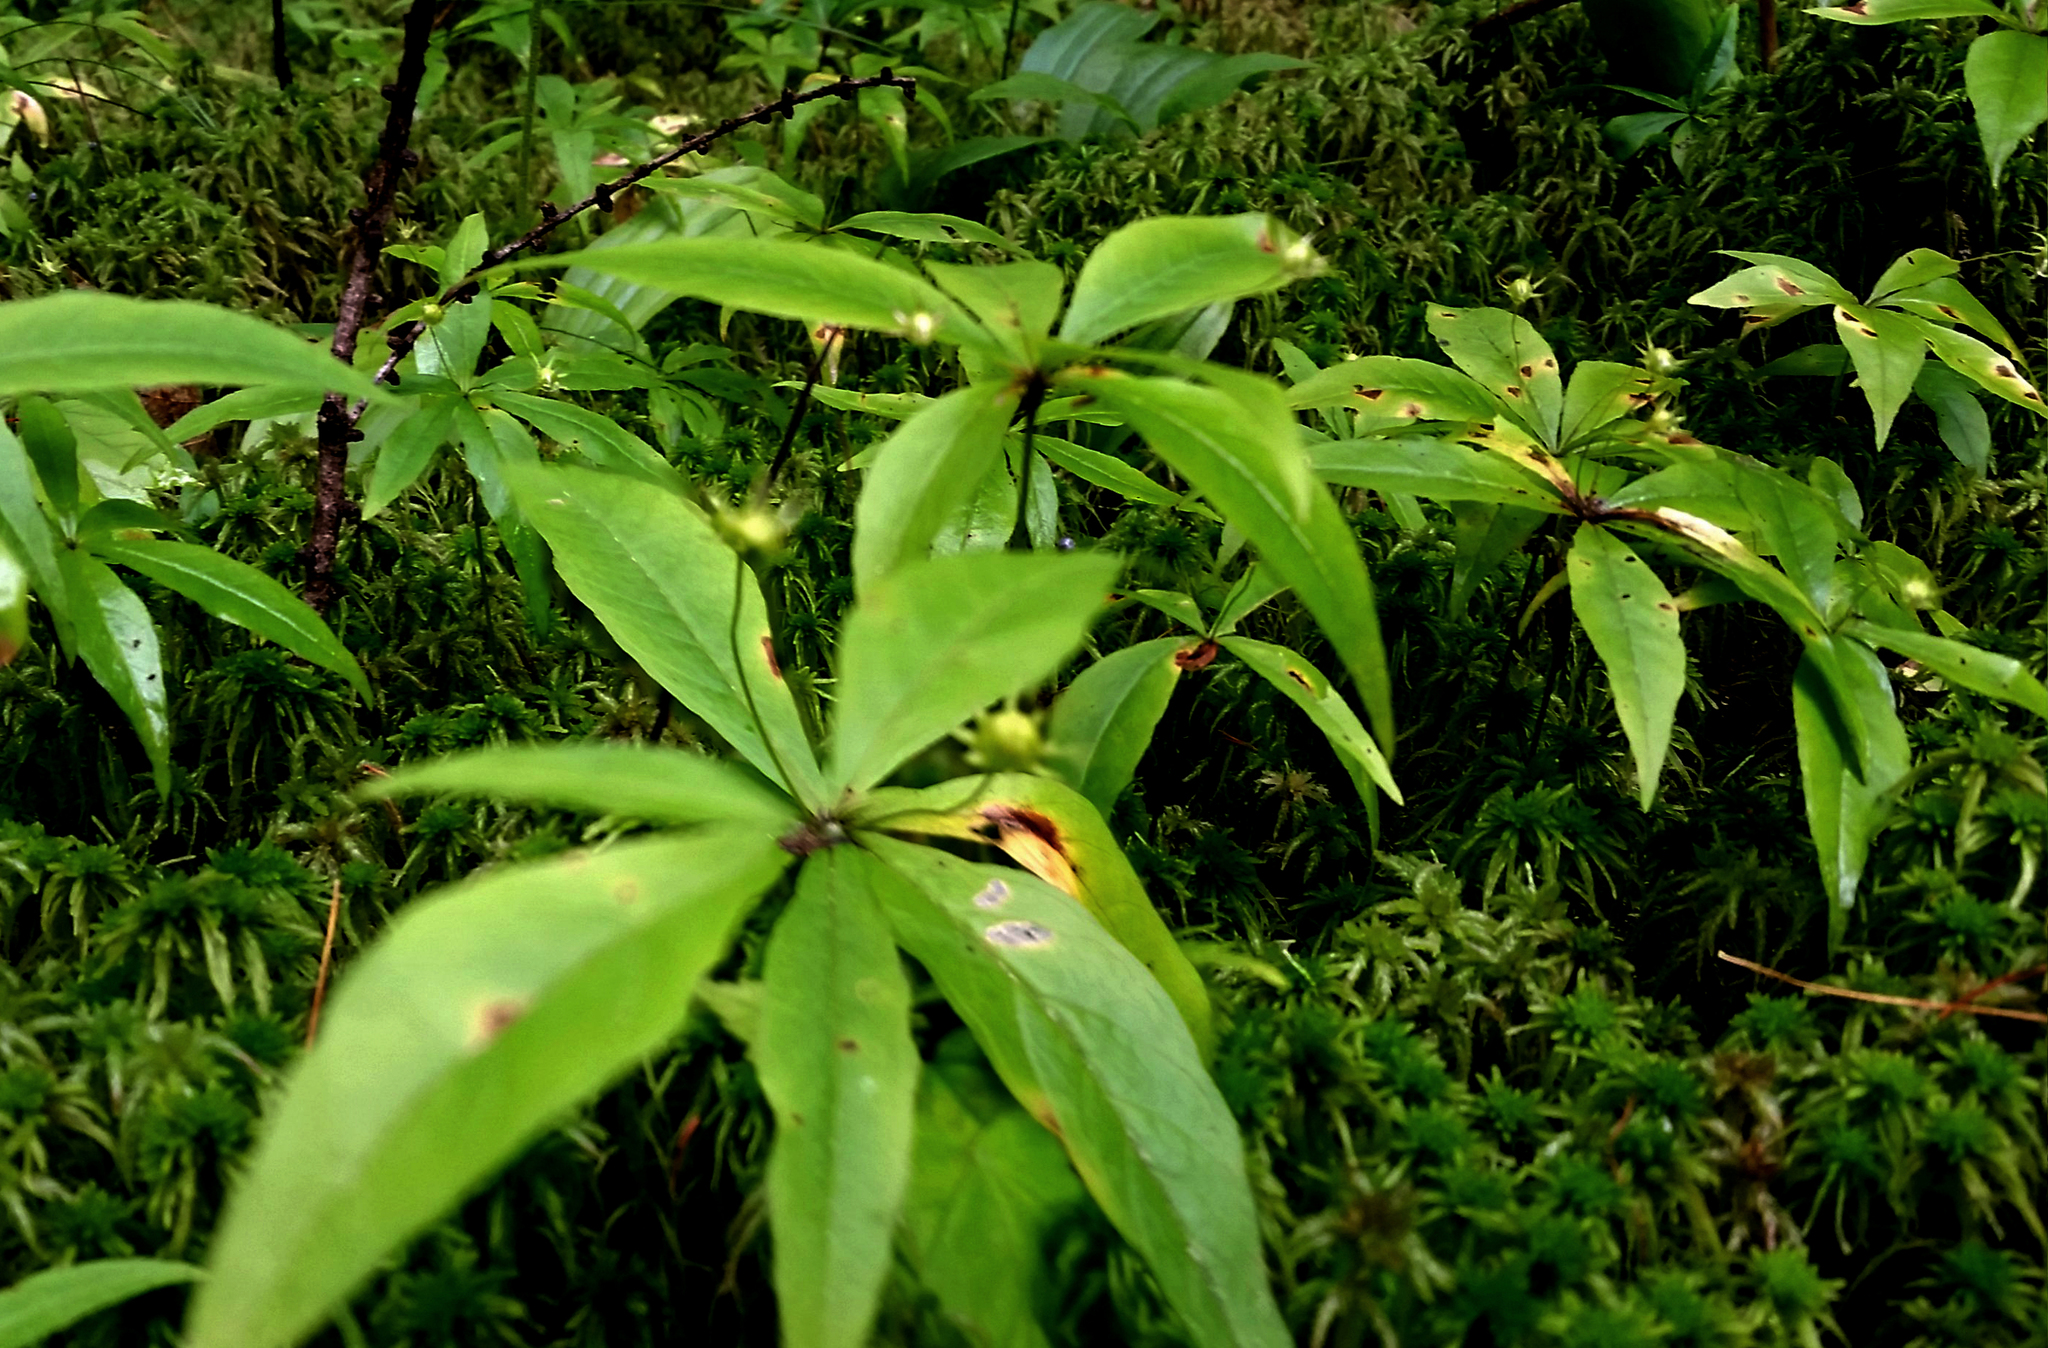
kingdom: Plantae
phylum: Tracheophyta
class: Magnoliopsida
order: Ericales
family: Primulaceae
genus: Lysimachia
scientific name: Lysimachia borealis
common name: American starflower
